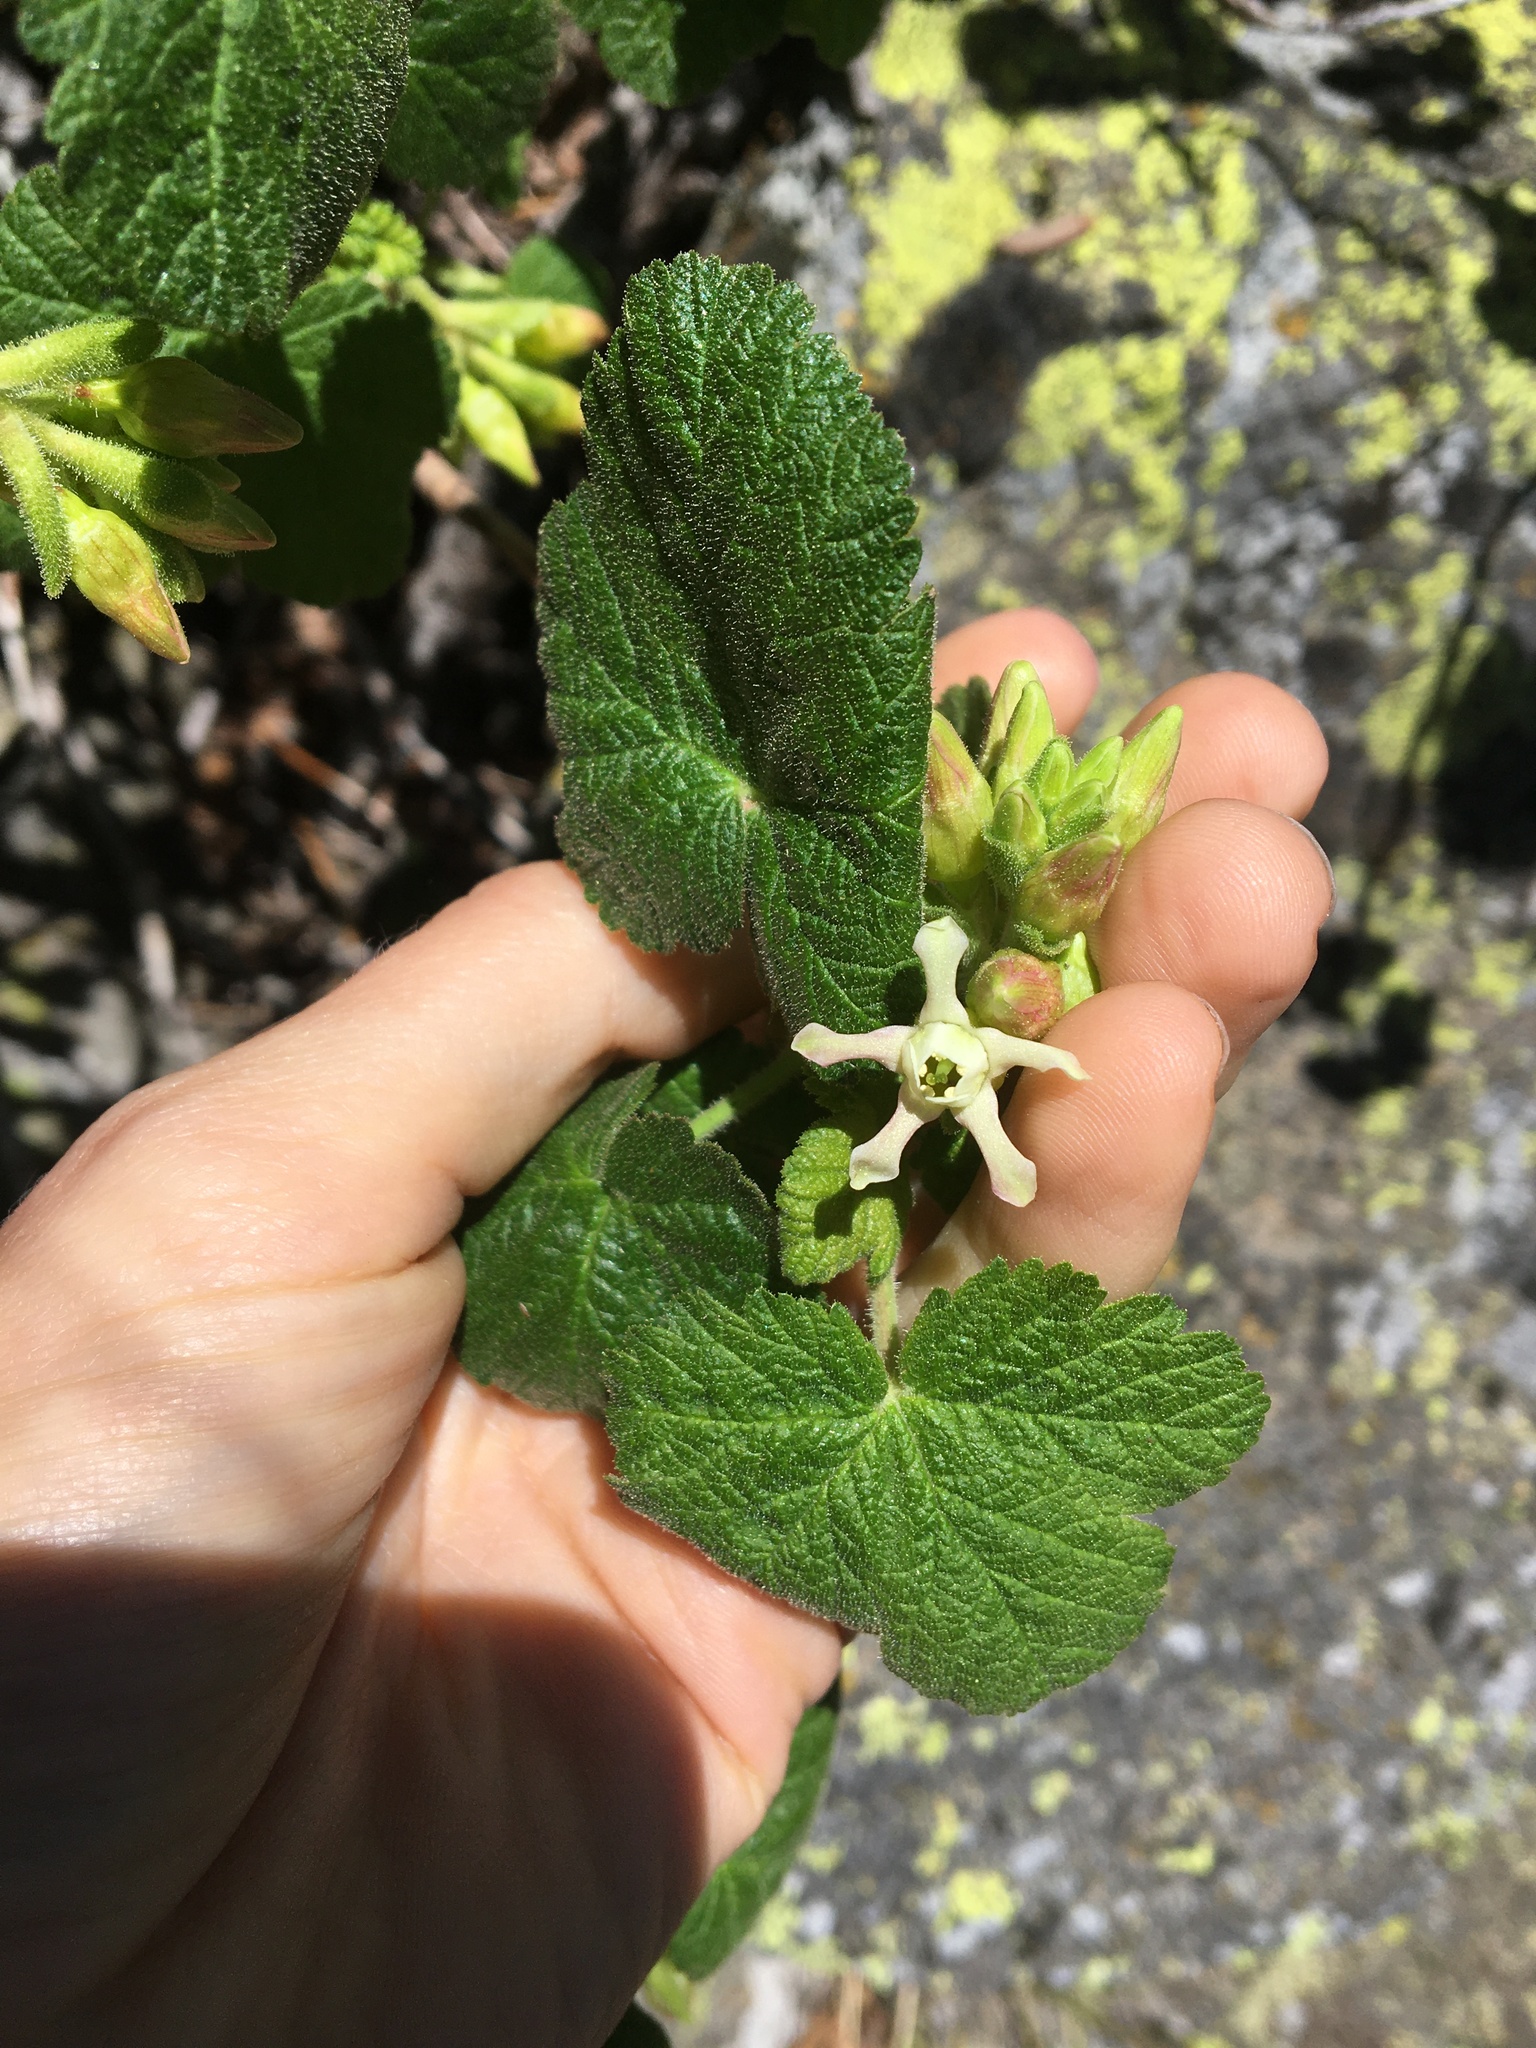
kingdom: Plantae
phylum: Tracheophyta
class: Magnoliopsida
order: Saxifragales
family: Grossulariaceae
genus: Ribes
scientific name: Ribes viscosissimum
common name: Sticky currant
